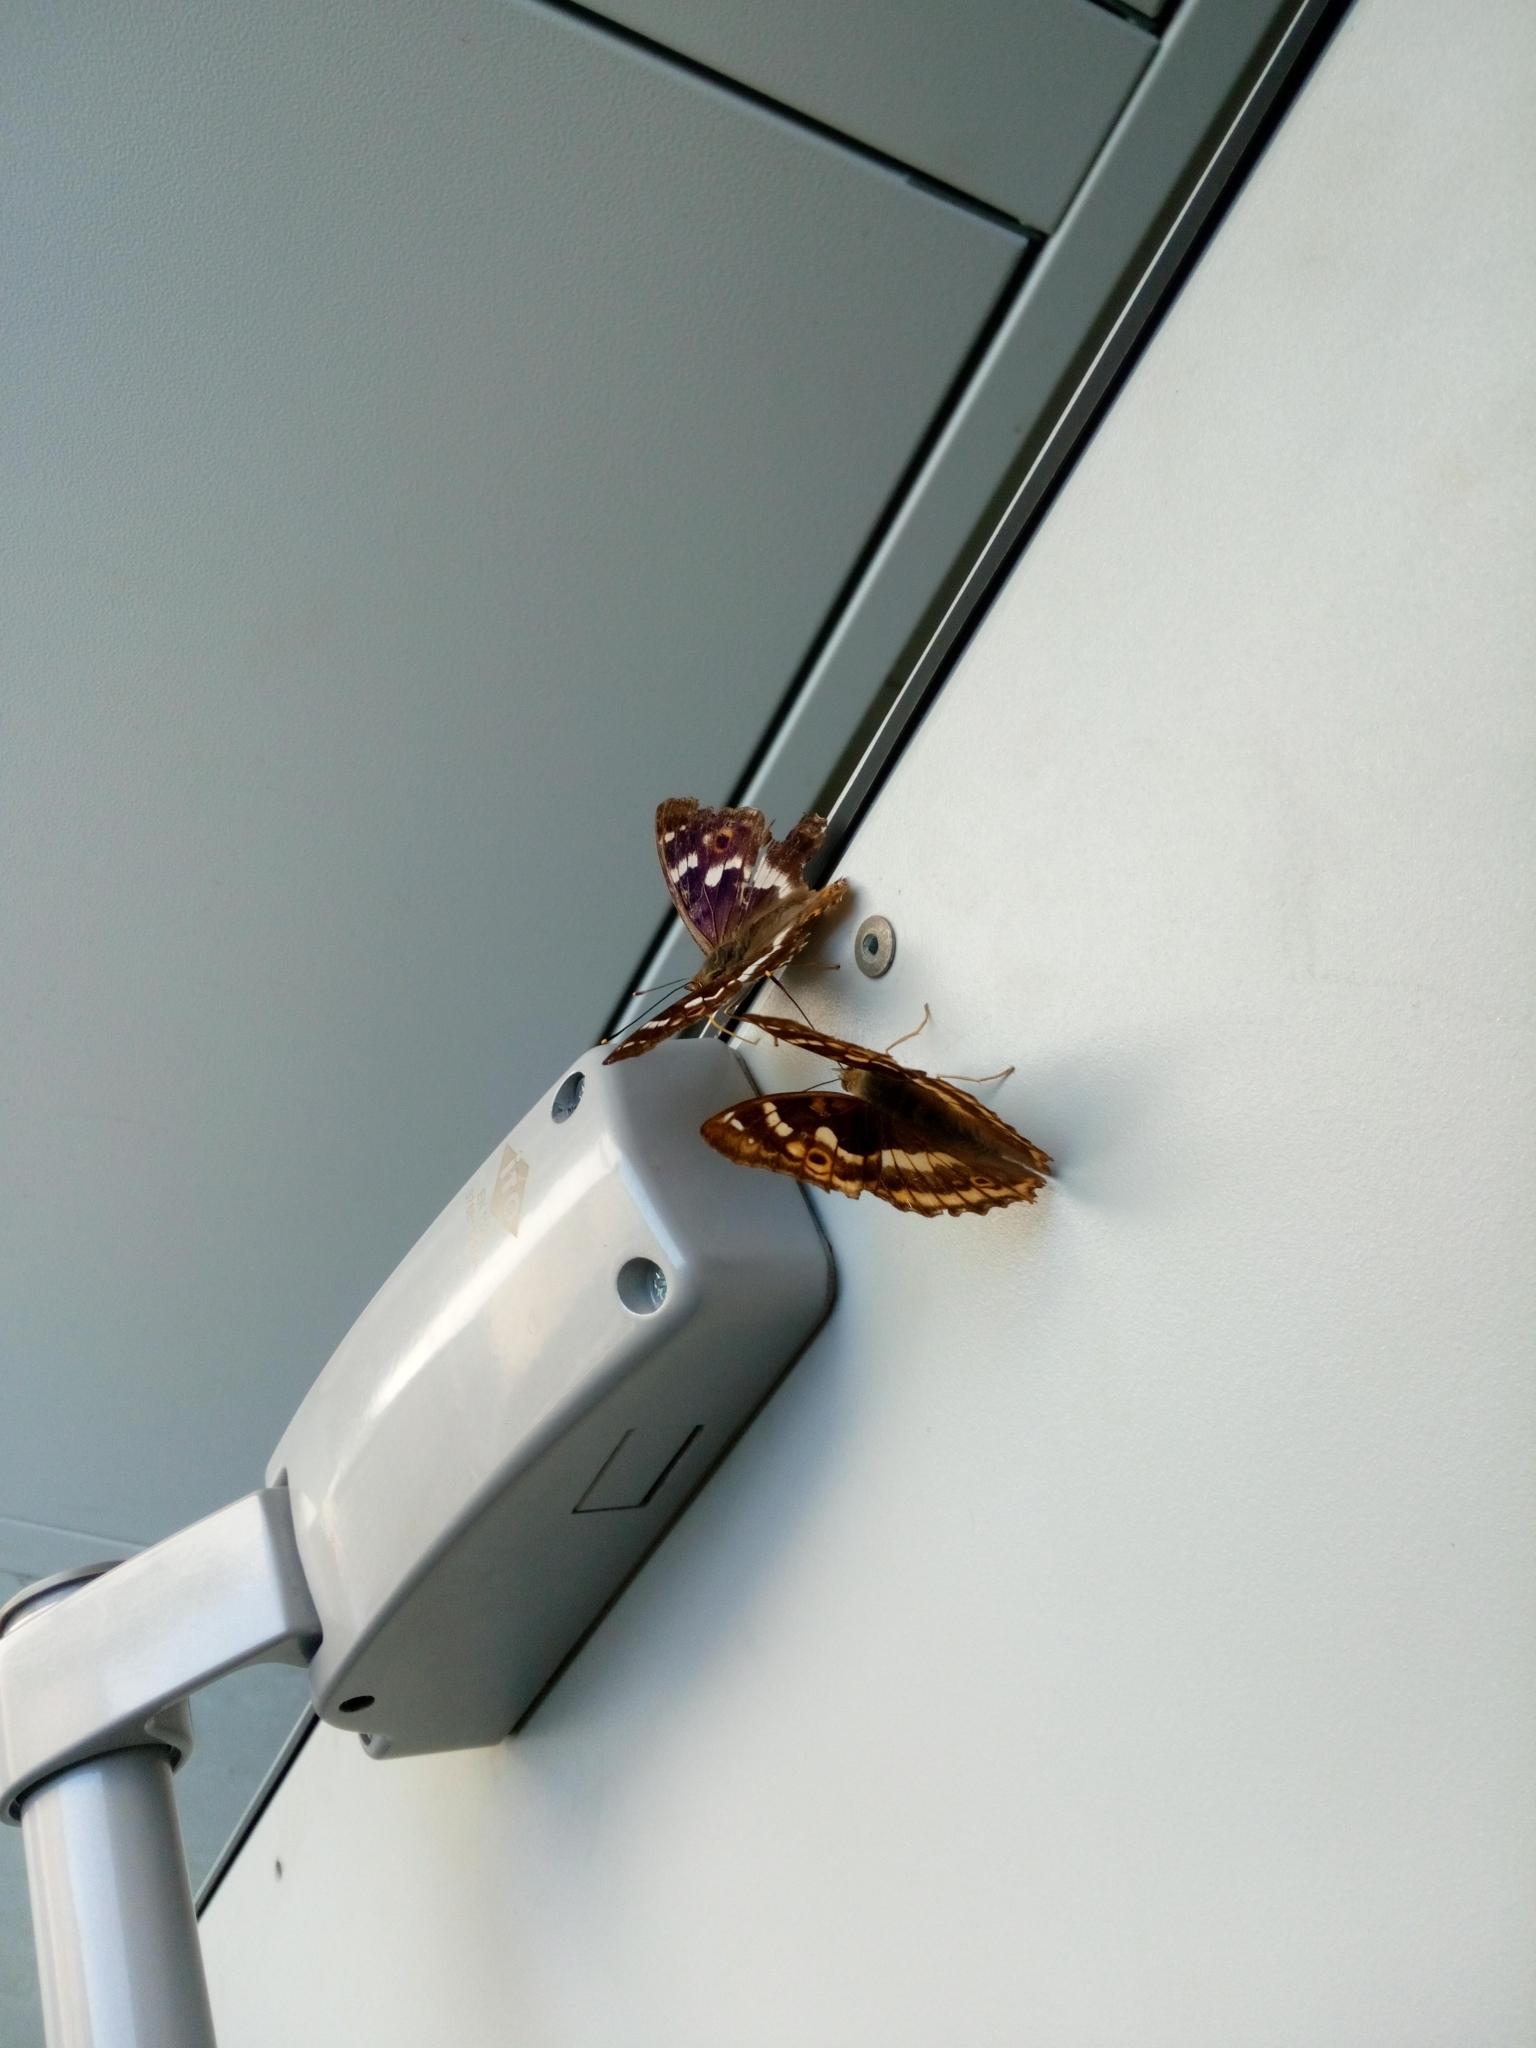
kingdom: Animalia
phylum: Arthropoda
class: Insecta
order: Lepidoptera
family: Nymphalidae
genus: Apatura
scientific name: Apatura ilia
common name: Lesser purple emperor
